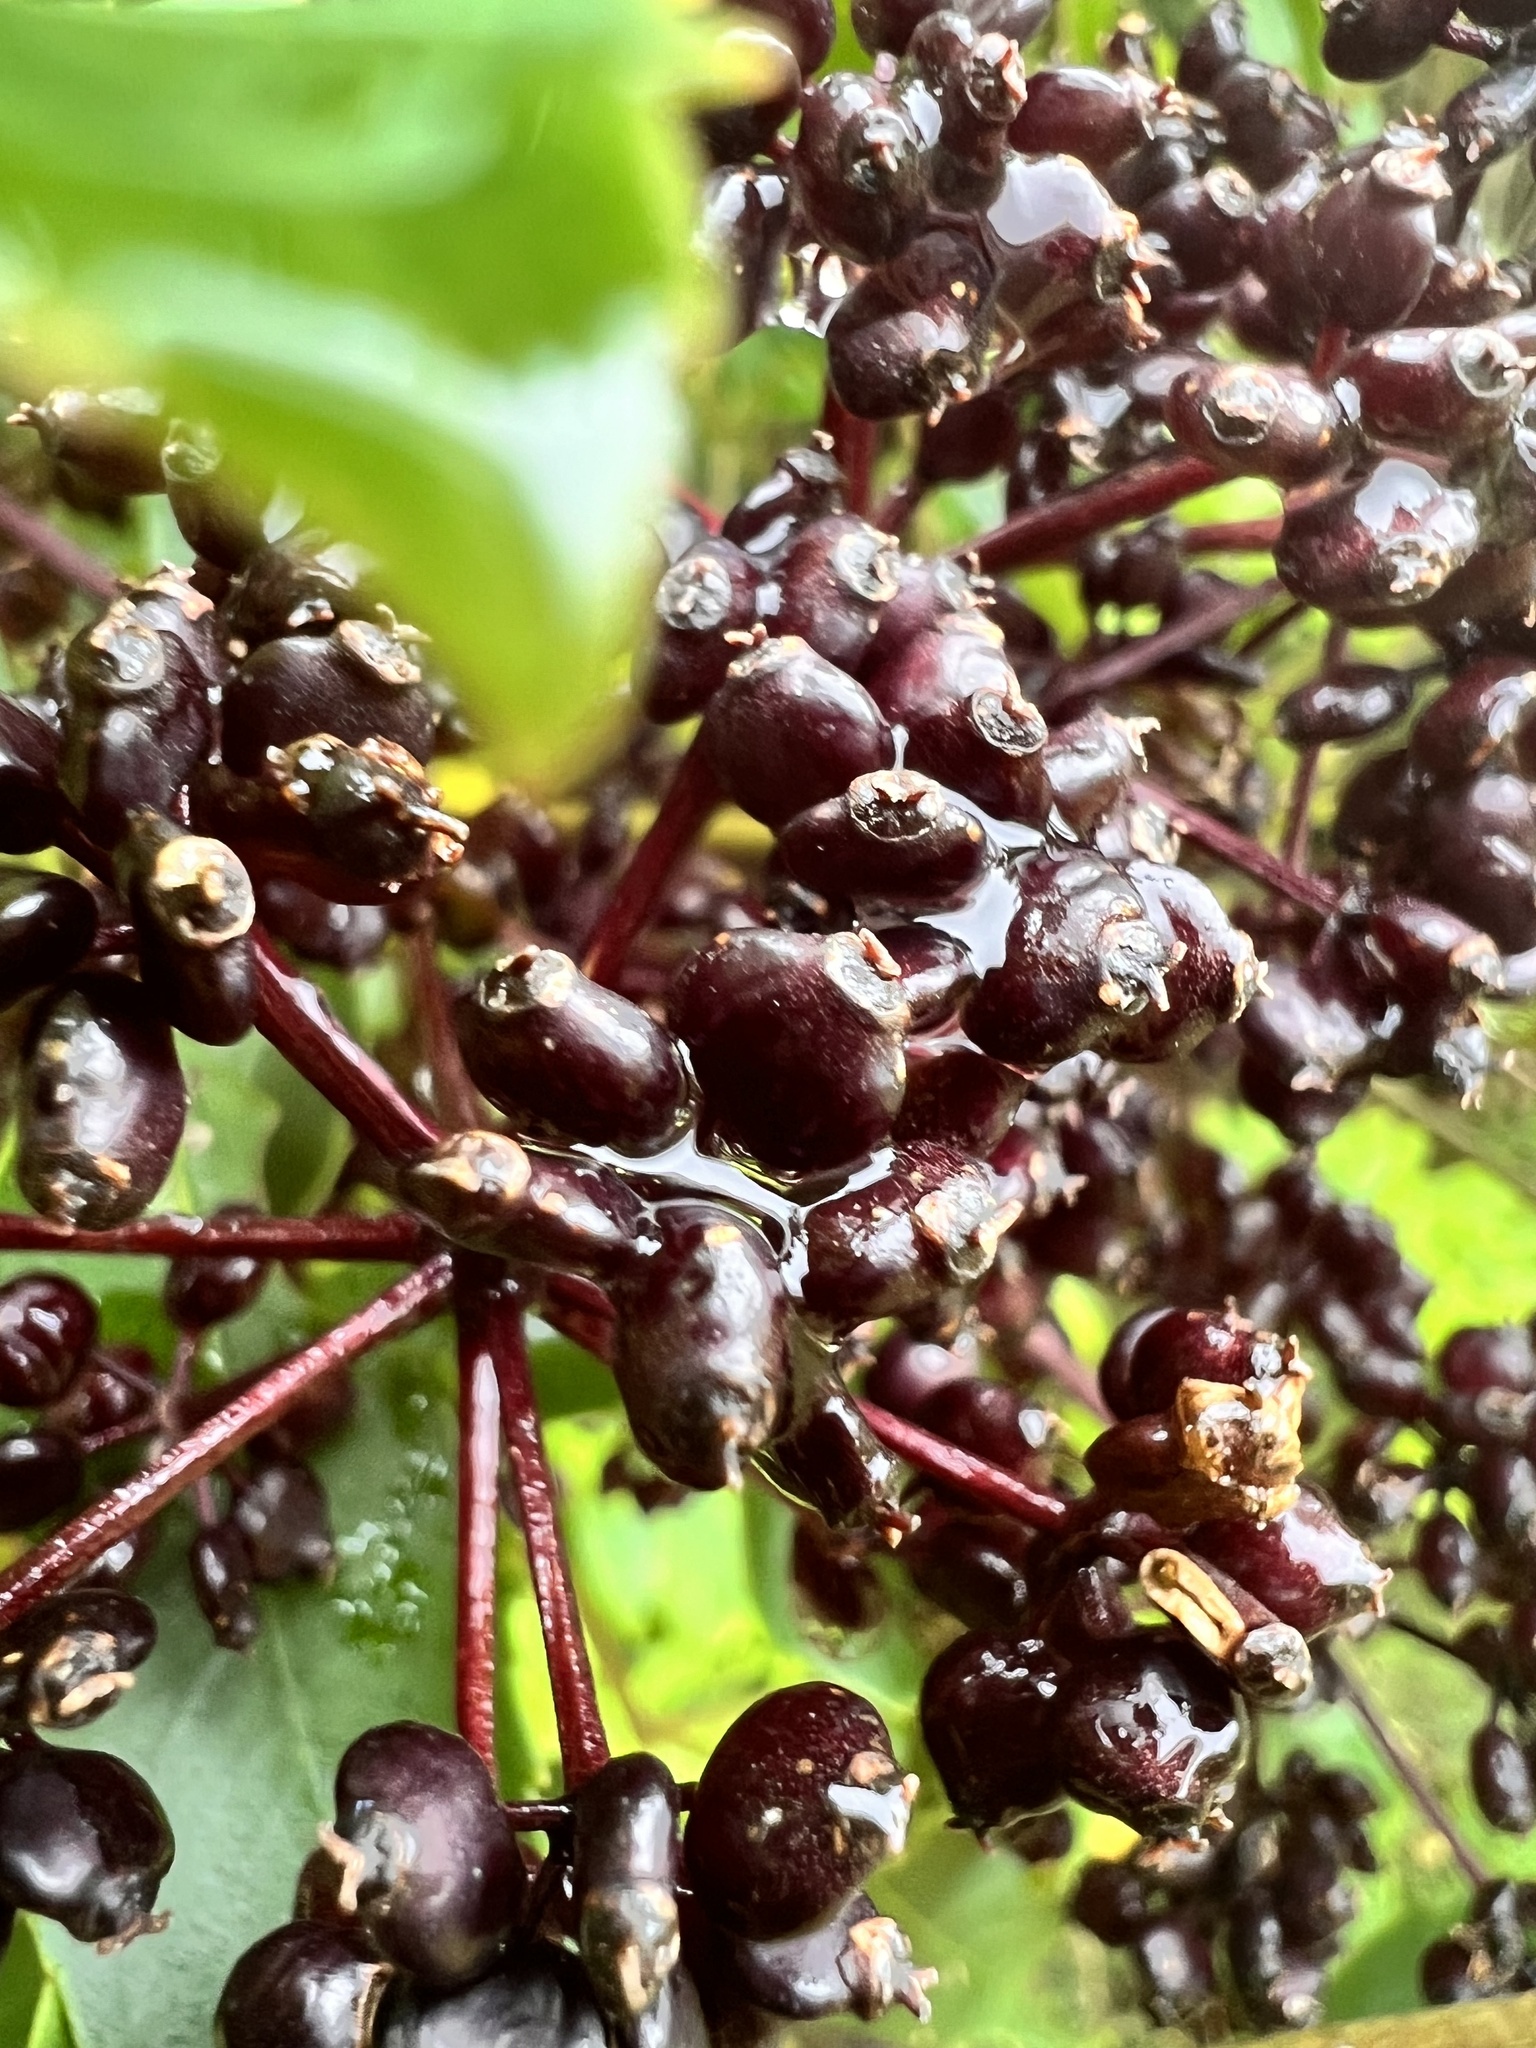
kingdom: Plantae
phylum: Tracheophyta
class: Magnoliopsida
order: Apiales
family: Araliaceae
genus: Neopanax
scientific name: Neopanax arboreus
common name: Five-fingers
